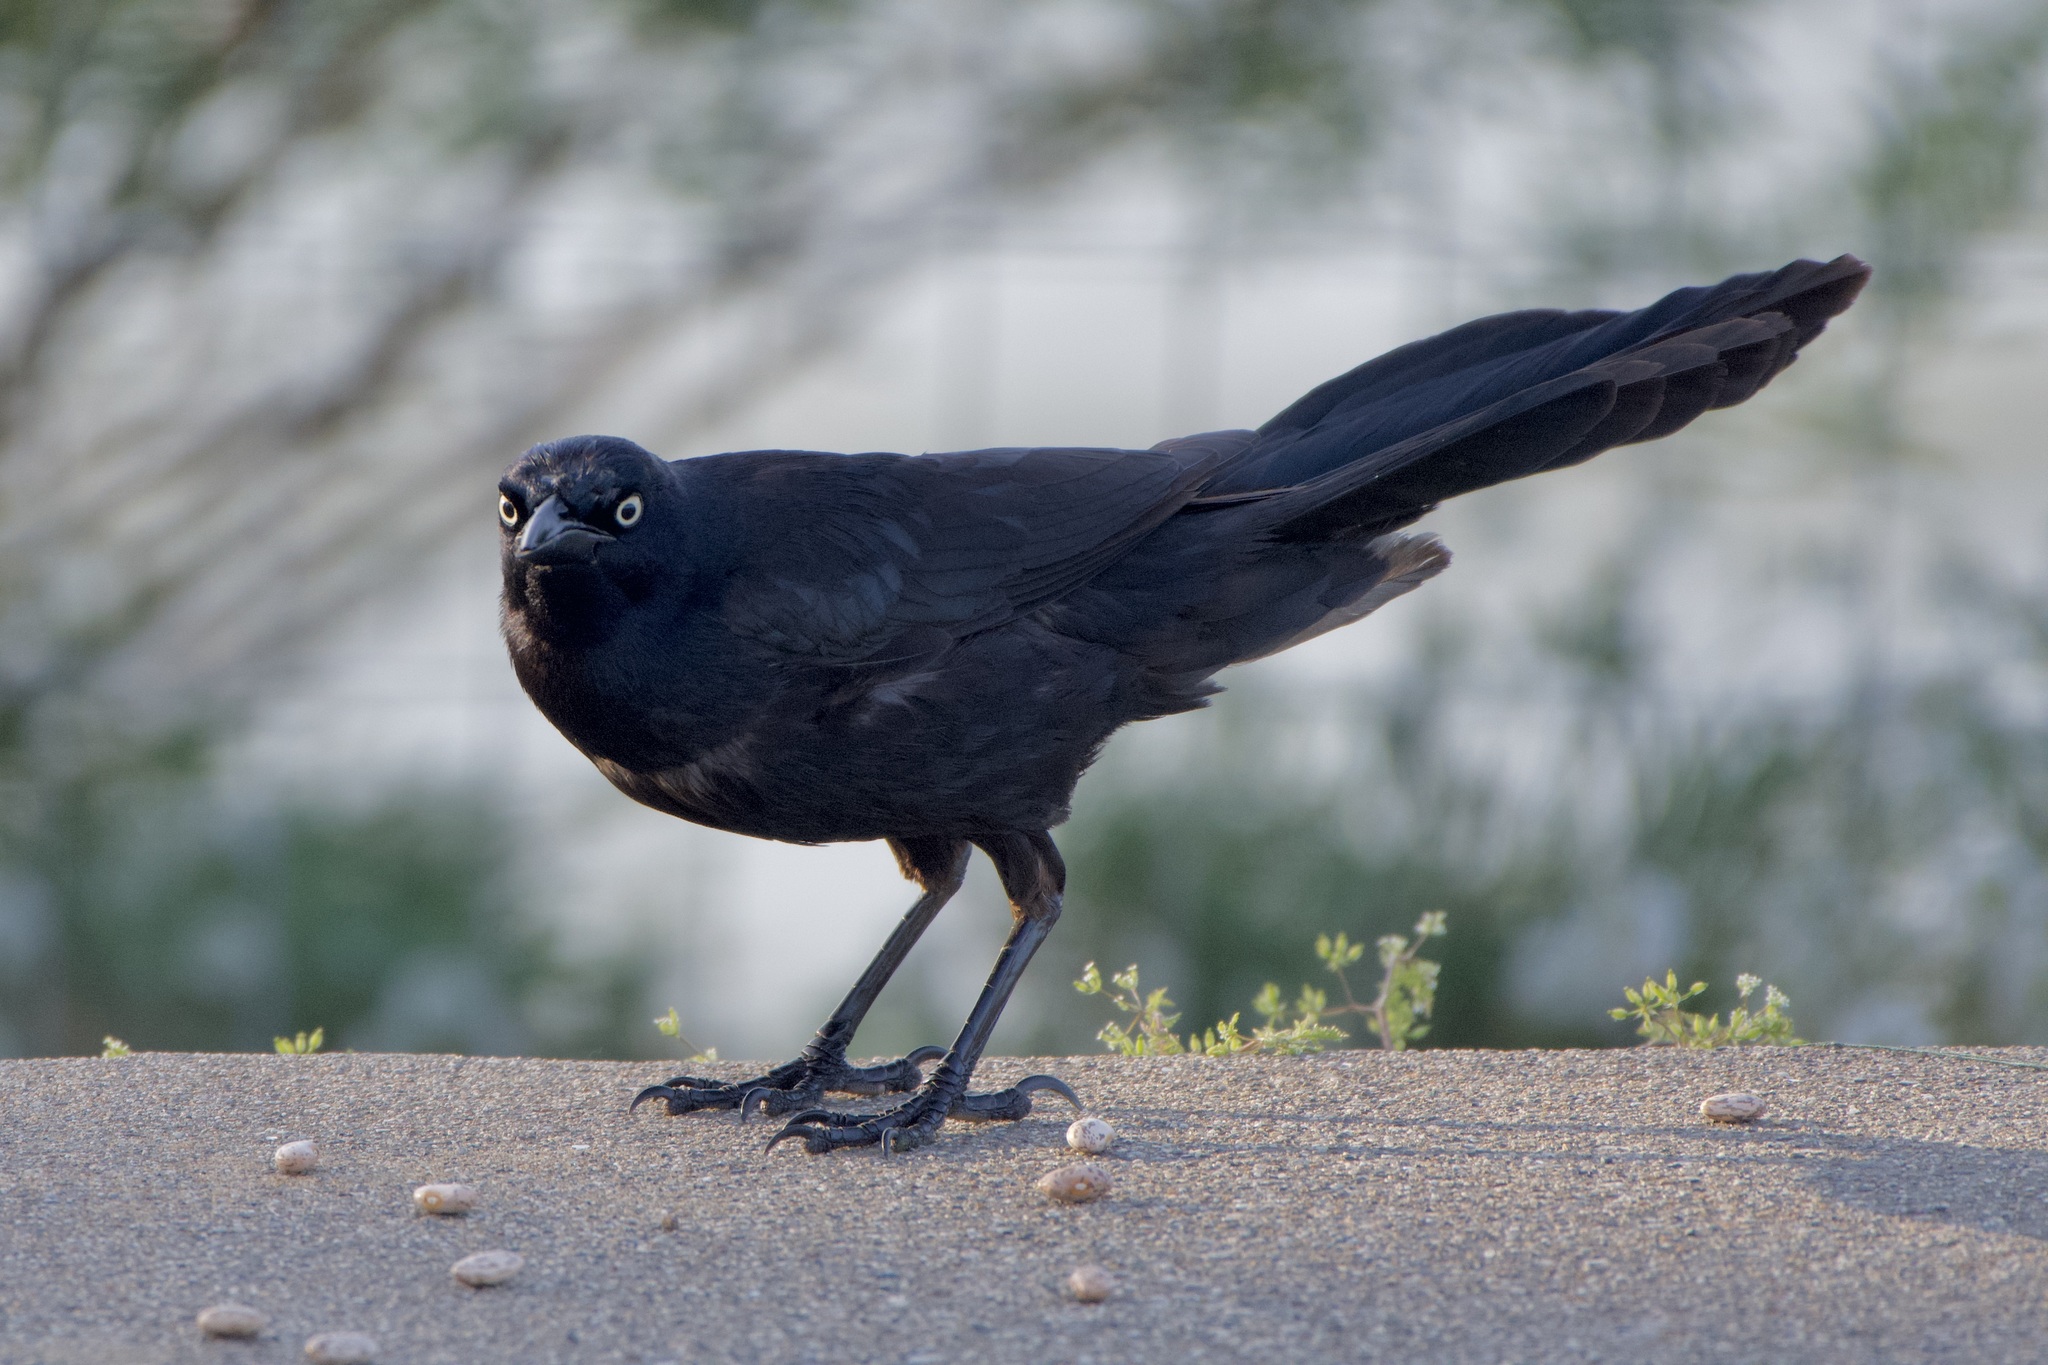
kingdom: Animalia
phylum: Chordata
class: Aves
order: Passeriformes
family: Icteridae
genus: Quiscalus
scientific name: Quiscalus mexicanus
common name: Great-tailed grackle
